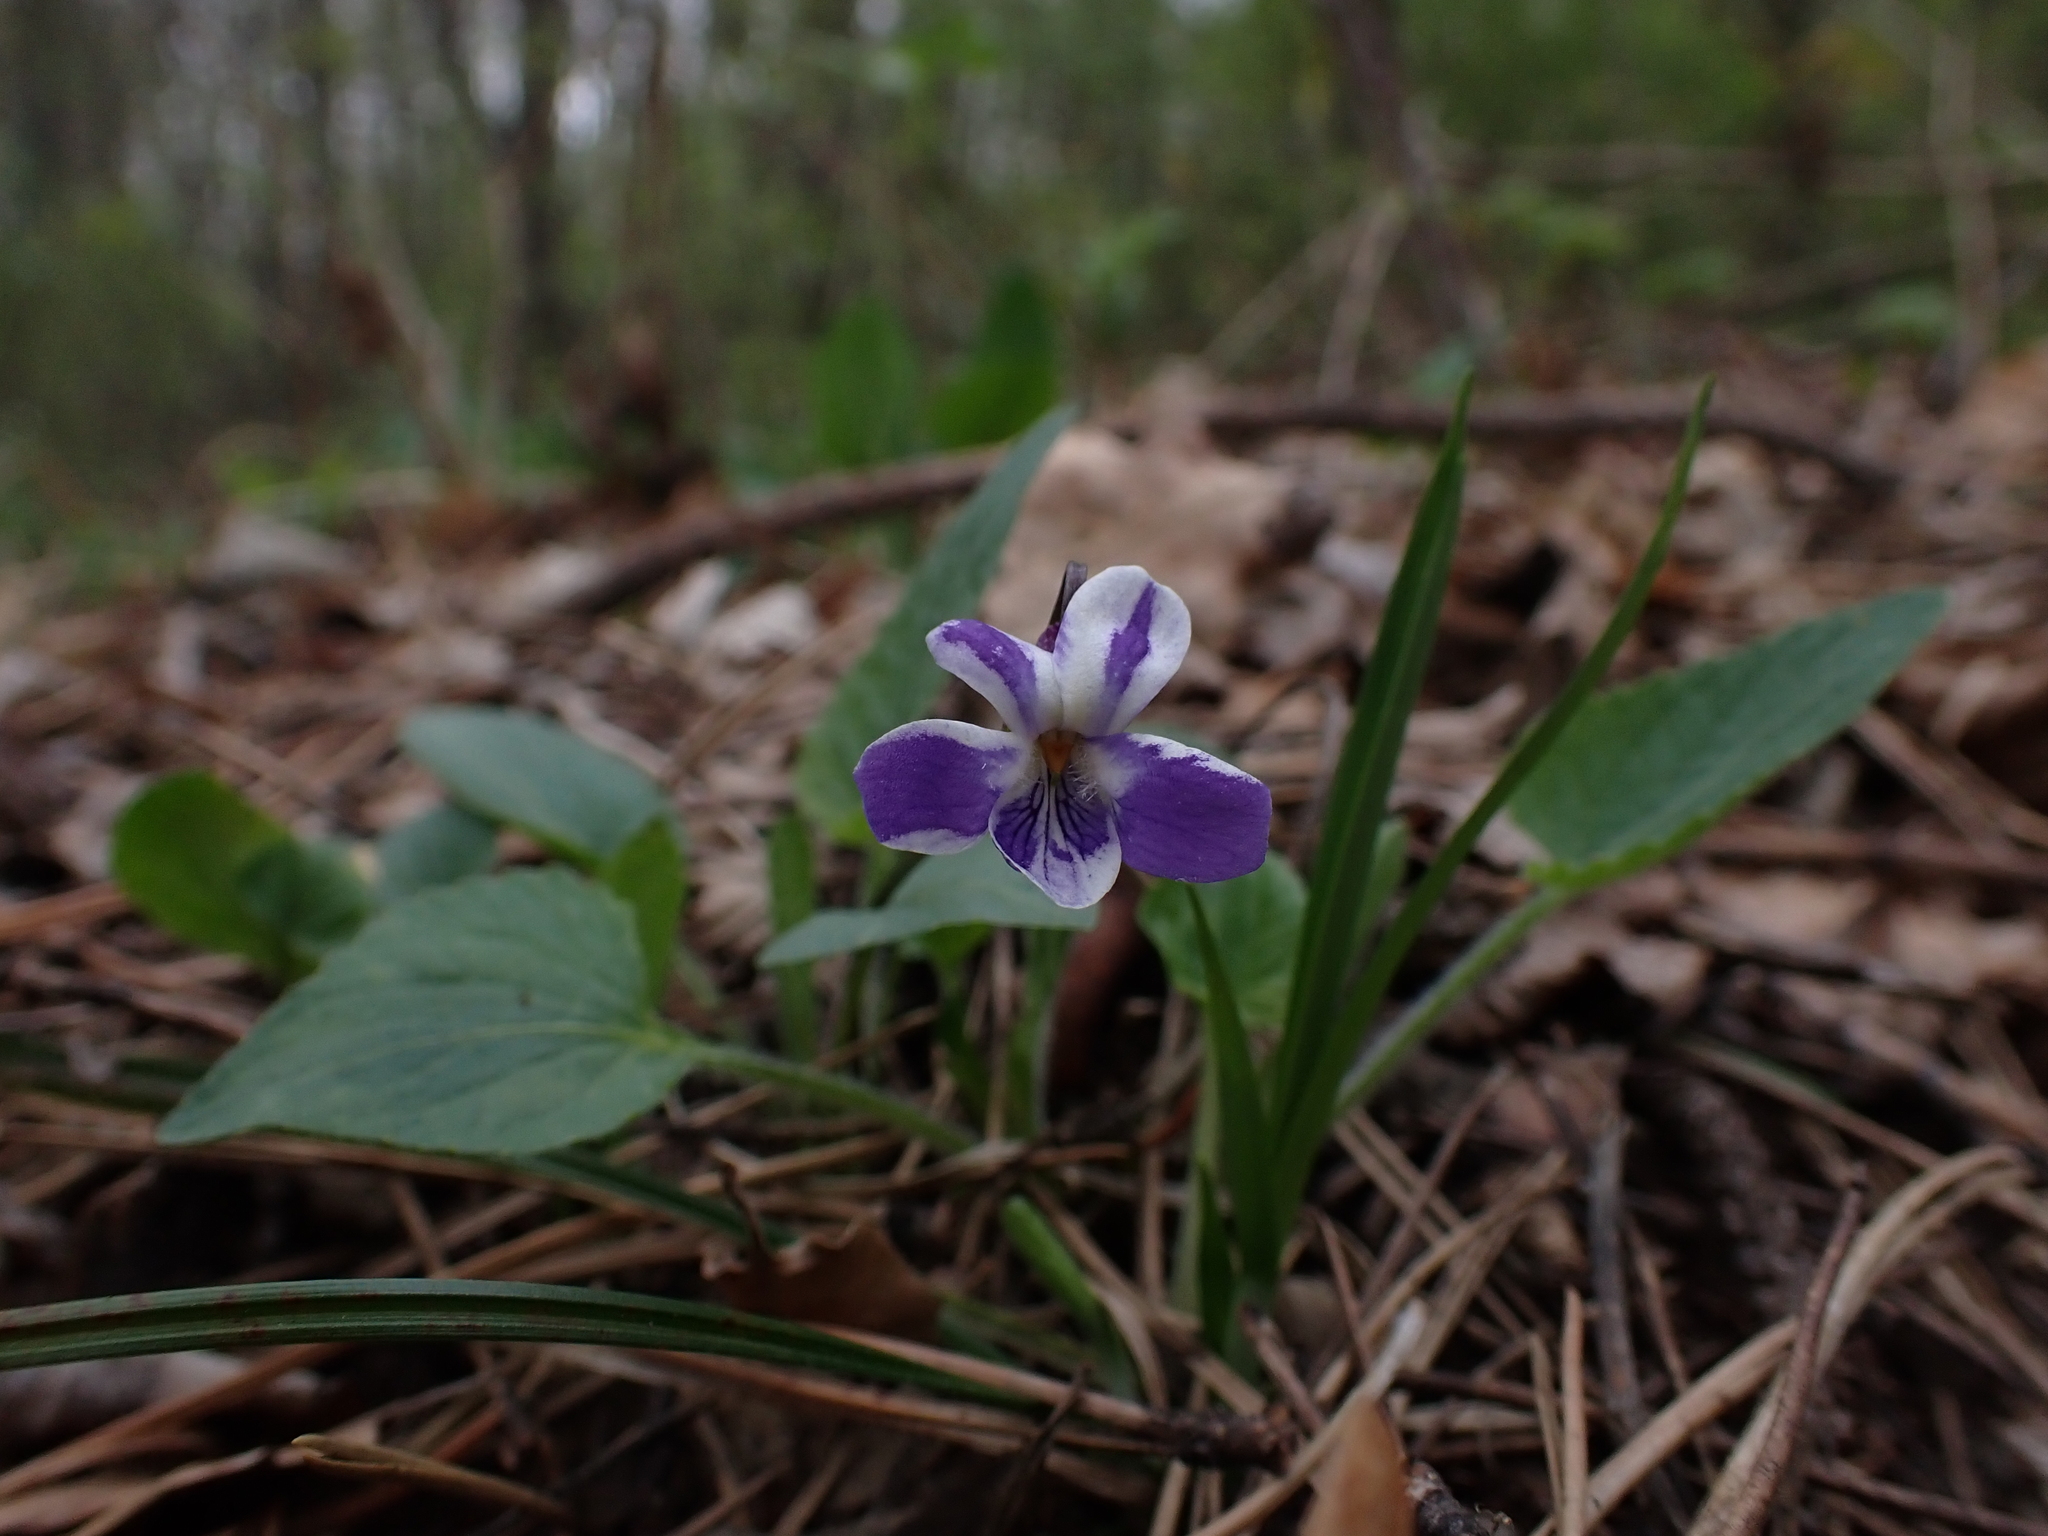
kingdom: Plantae
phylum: Tracheophyta
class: Magnoliopsida
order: Malpighiales
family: Violaceae
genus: Viola
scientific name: Viola hirta
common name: Hairy violet
